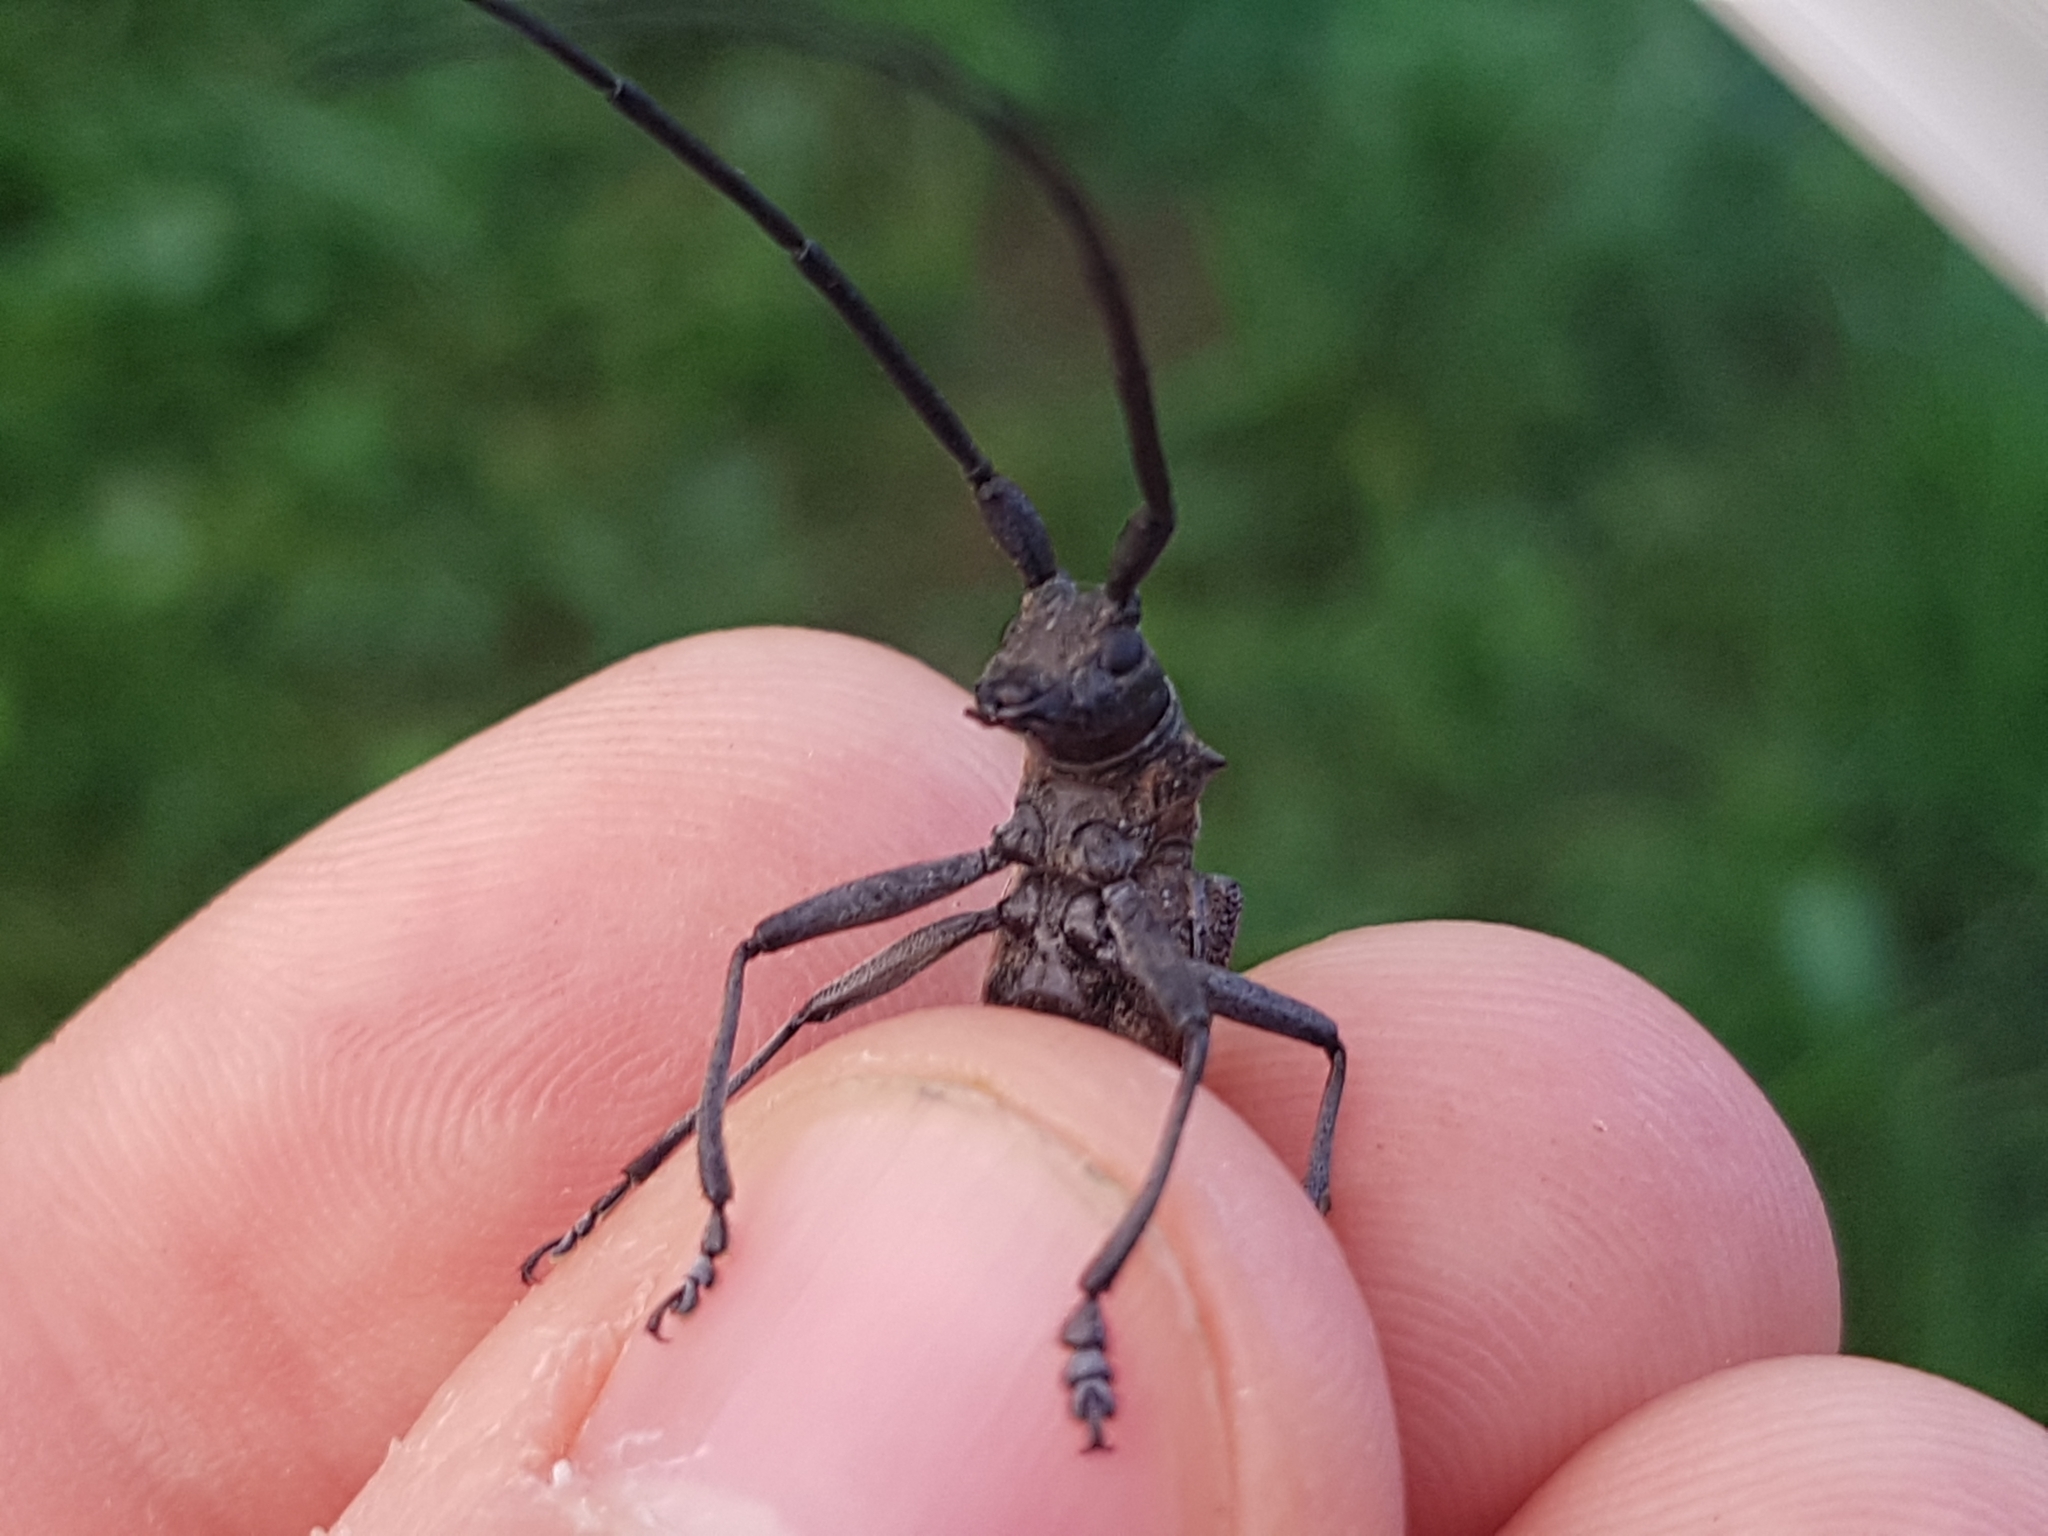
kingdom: Animalia
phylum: Arthropoda
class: Insecta
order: Coleoptera
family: Cerambycidae
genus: Monochamus
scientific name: Monochamus galloprovincialis
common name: Pine sawyer
